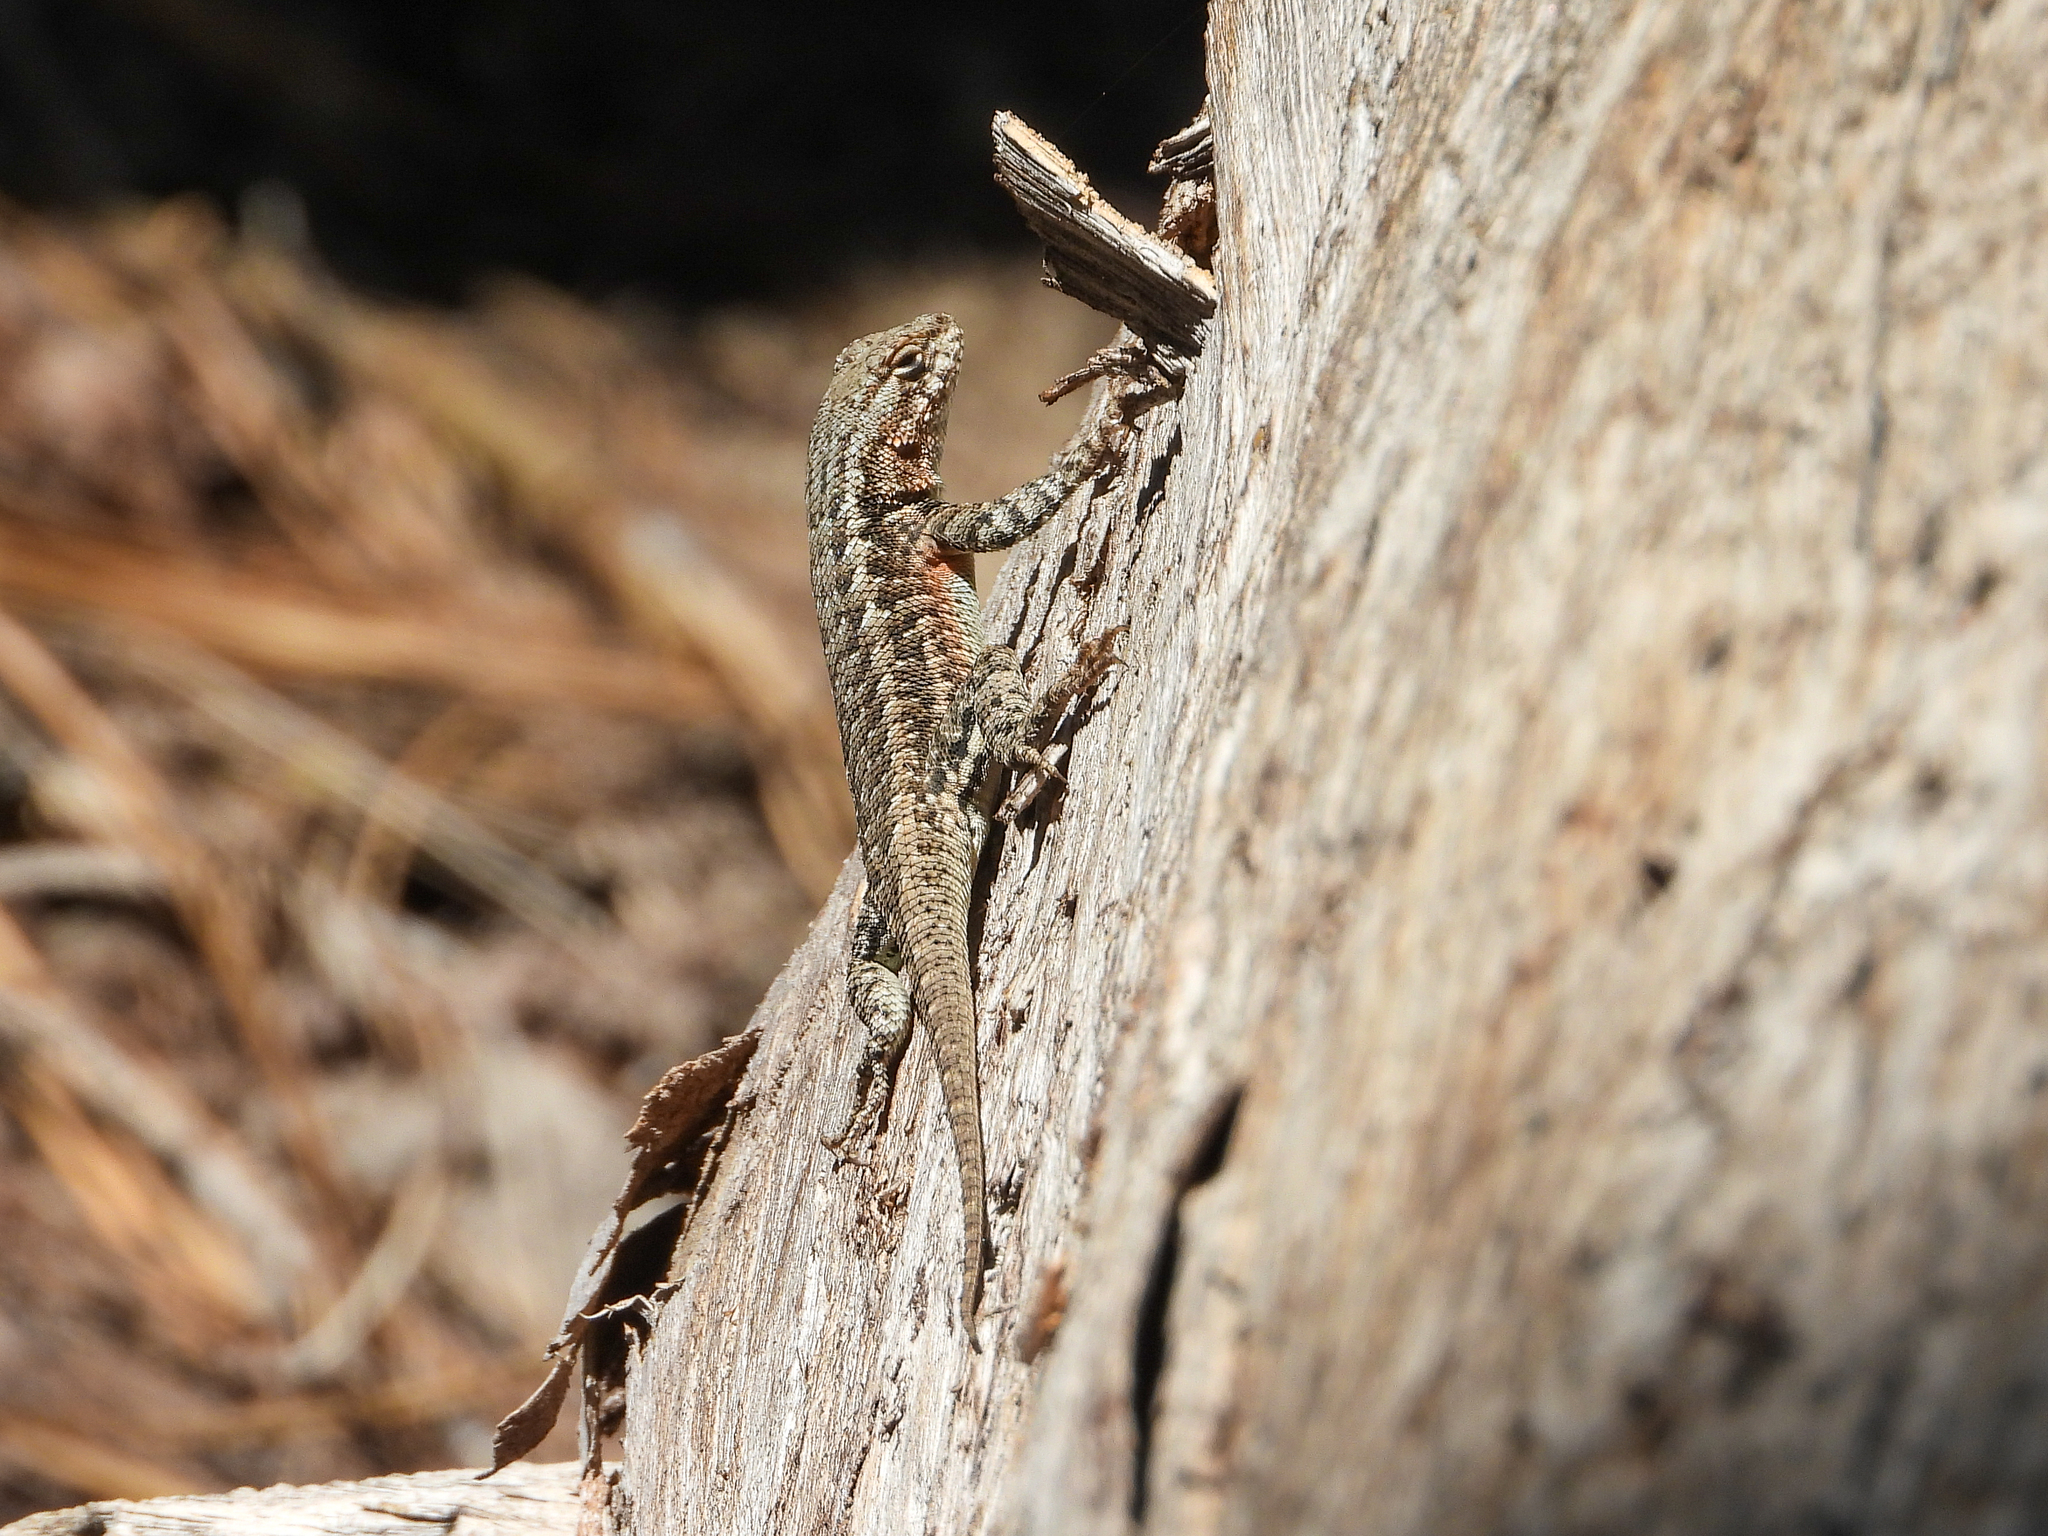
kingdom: Animalia
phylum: Chordata
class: Squamata
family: Phrynosomatidae
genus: Sceloporus
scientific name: Sceloporus graciosus
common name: Sagebrush lizard
